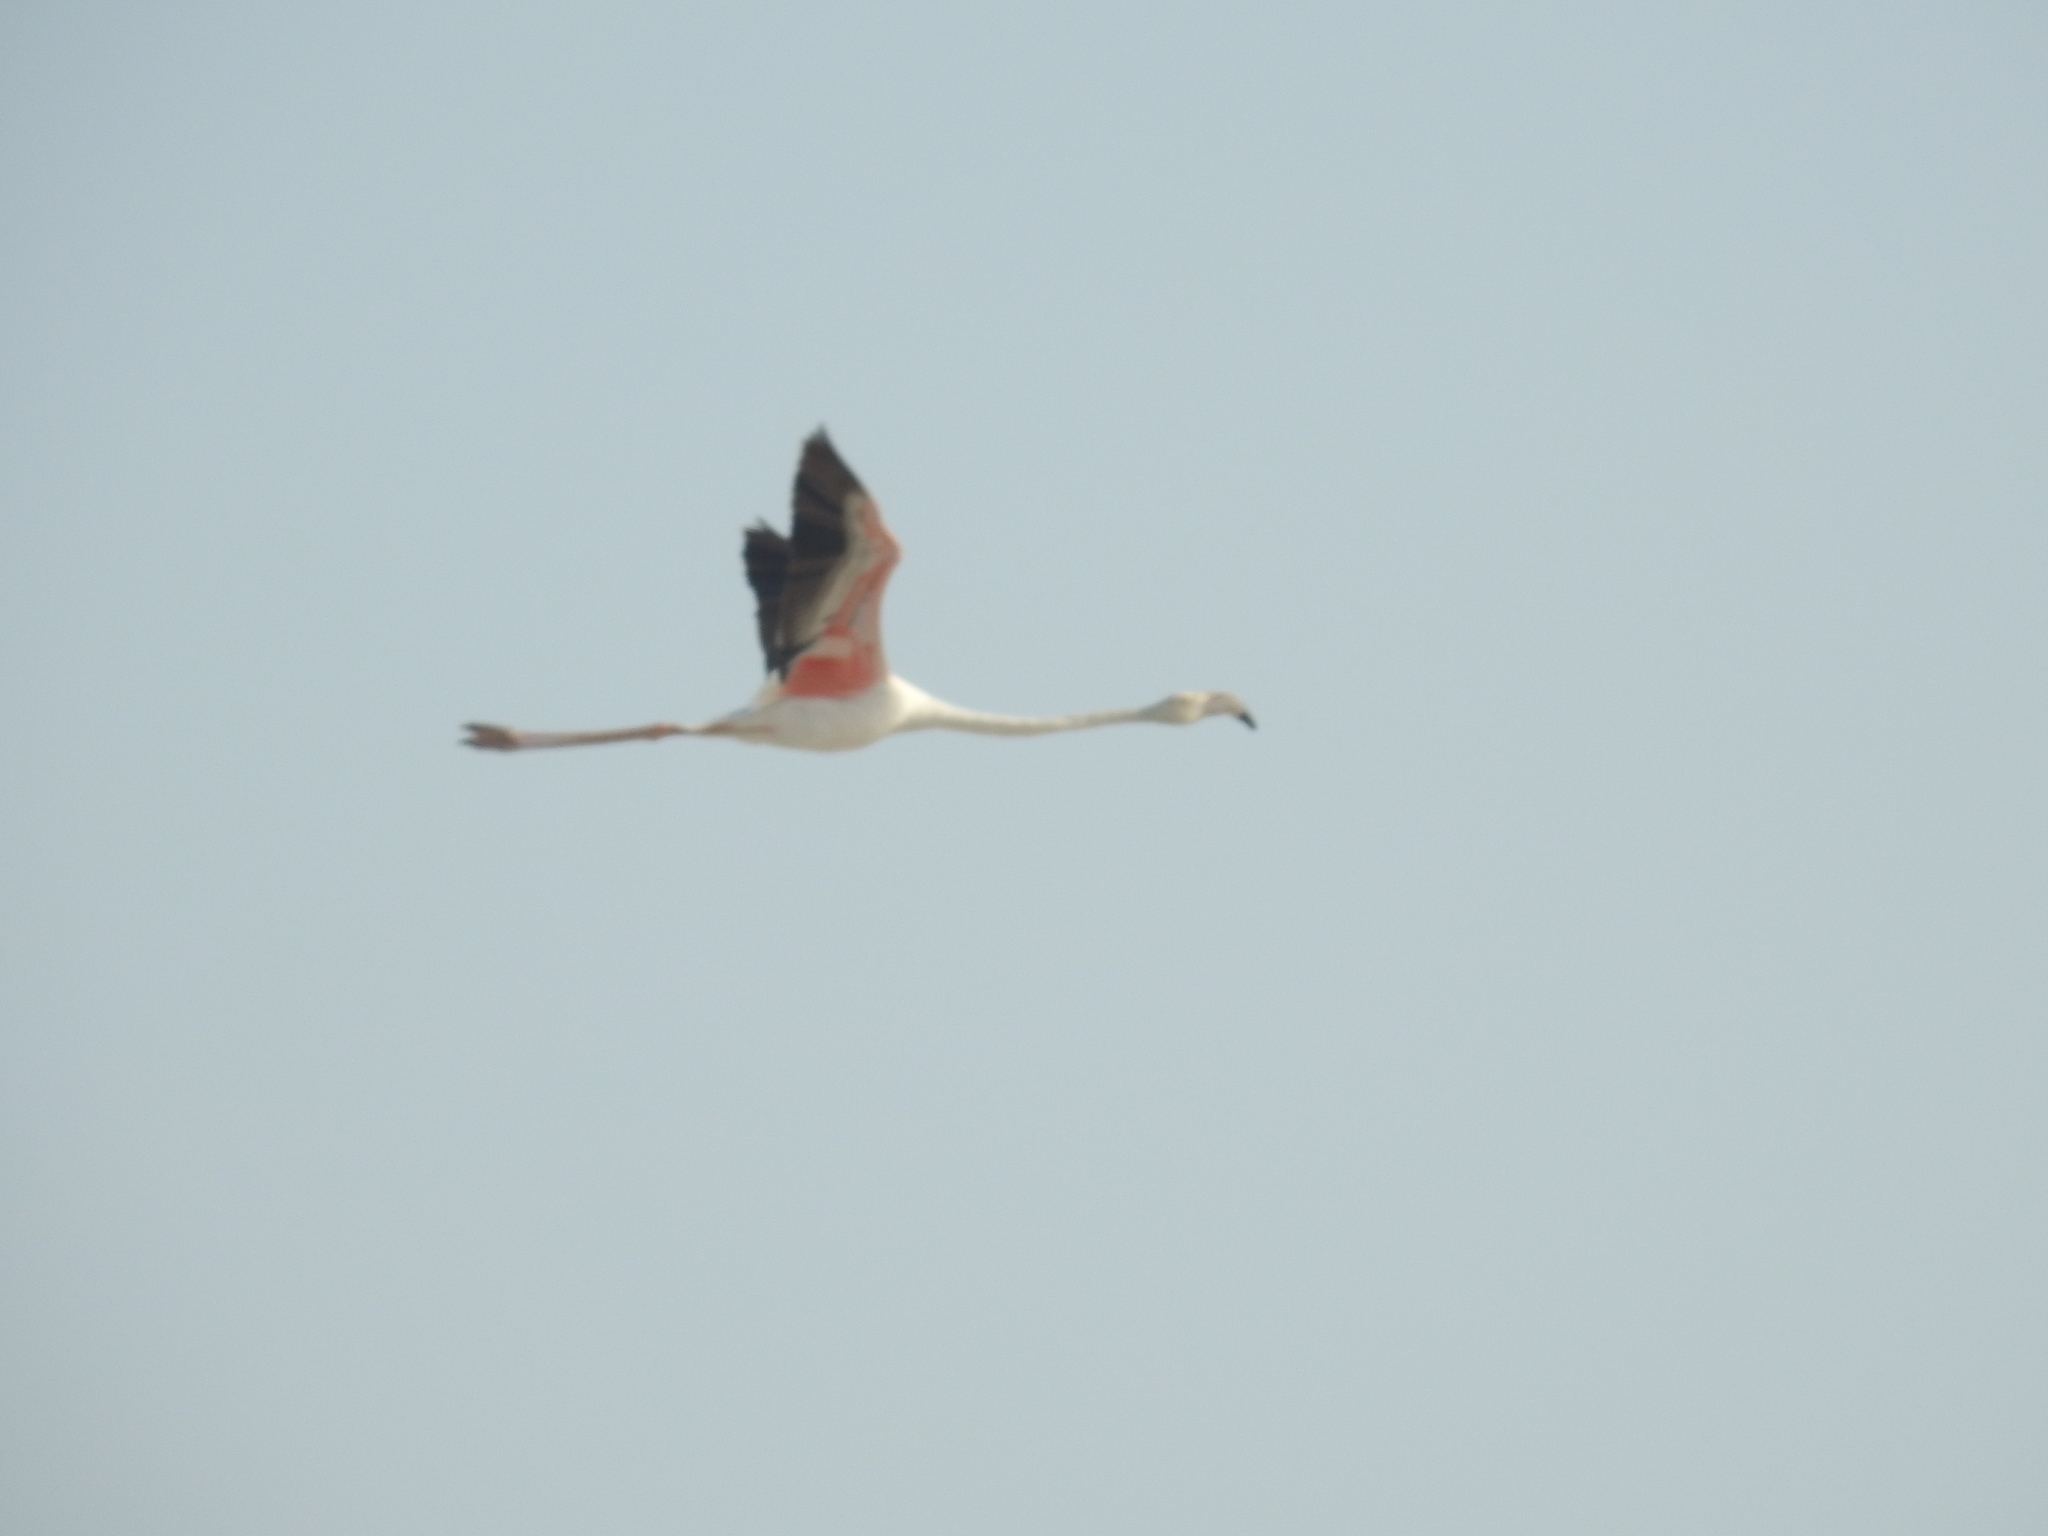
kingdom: Animalia
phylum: Chordata
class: Aves
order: Phoenicopteriformes
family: Phoenicopteridae
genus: Phoenicopterus
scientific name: Phoenicopterus roseus
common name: Greater flamingo
